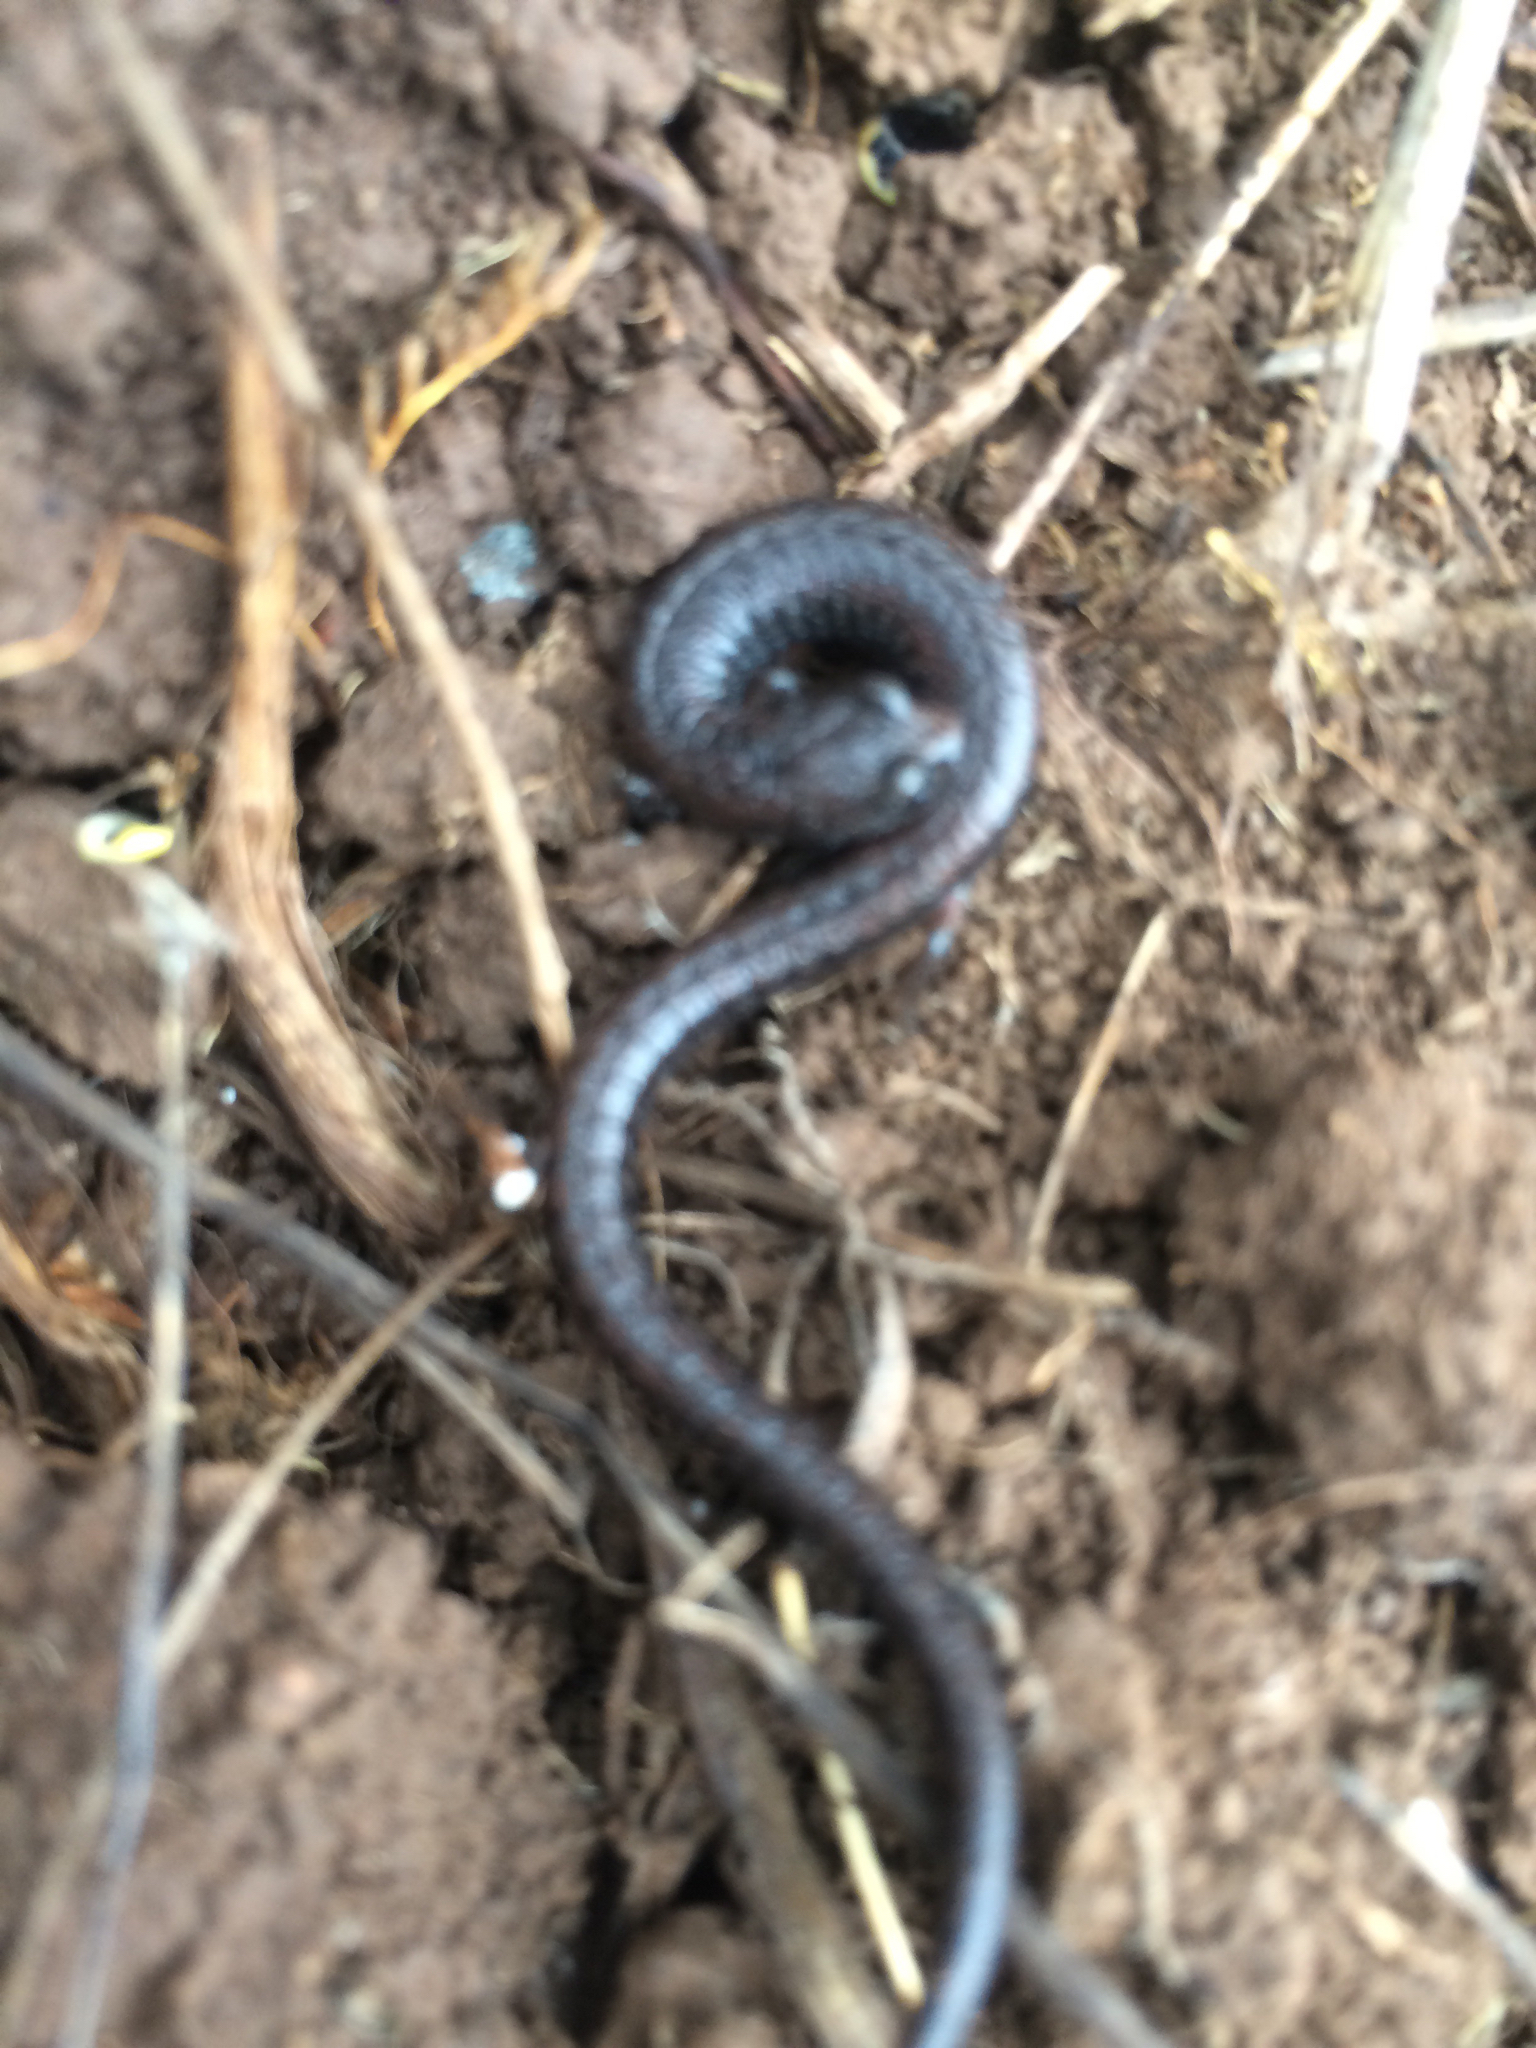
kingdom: Animalia
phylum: Chordata
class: Amphibia
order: Caudata
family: Plethodontidae
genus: Batrachoseps
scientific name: Batrachoseps attenuatus
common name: California slender salamander
